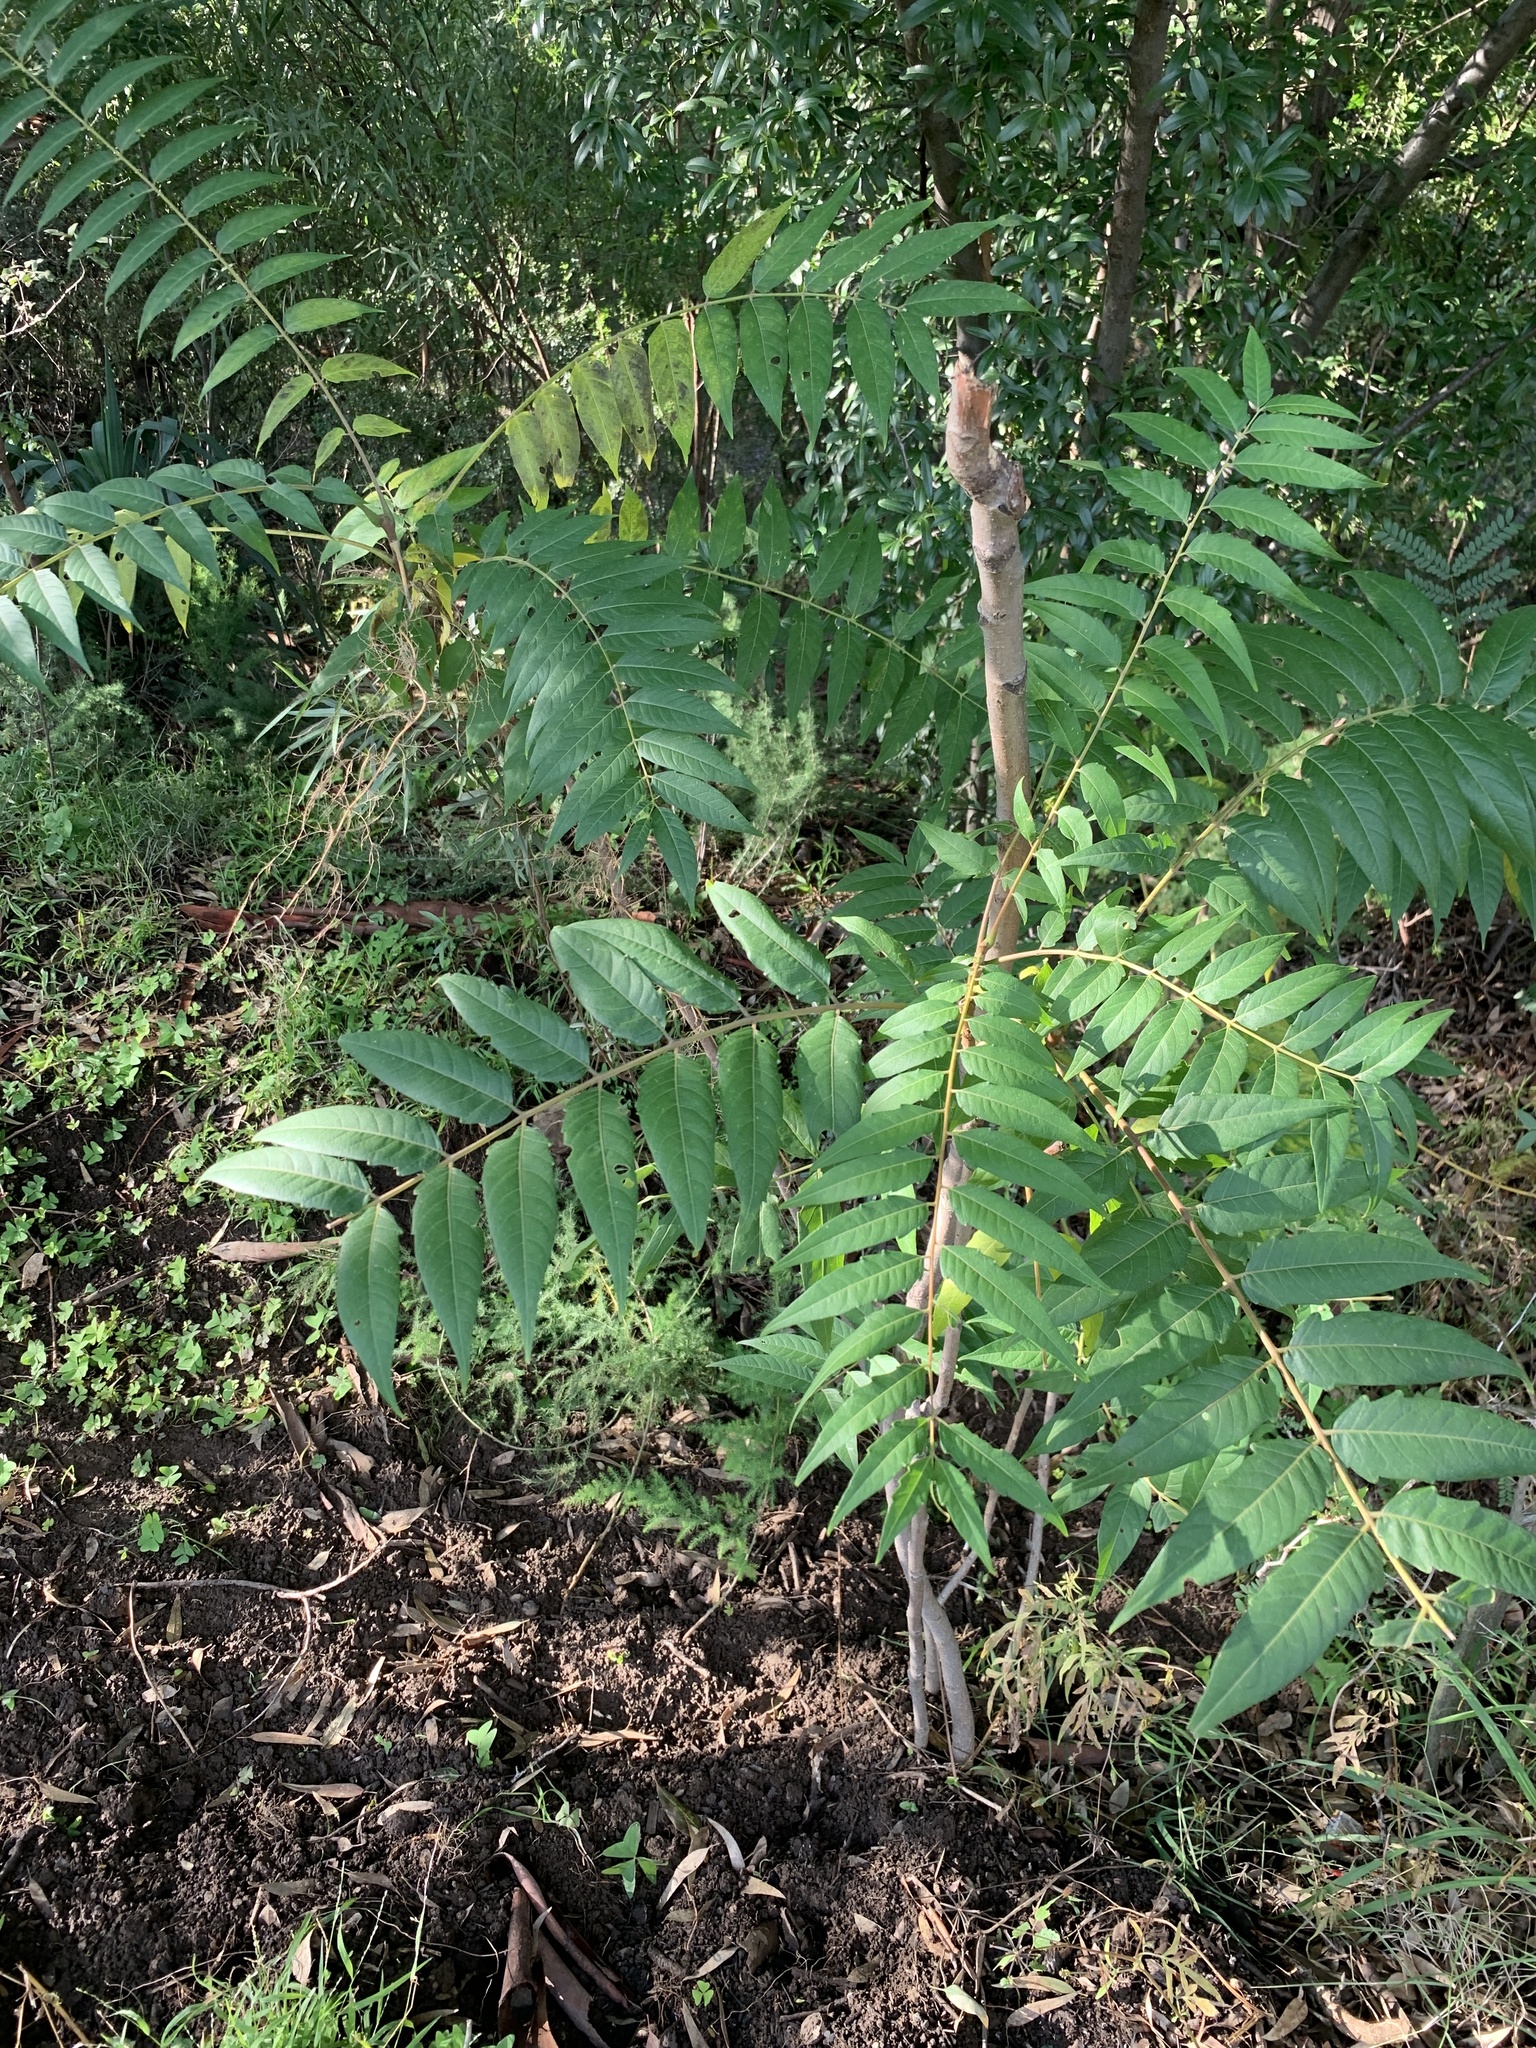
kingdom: Plantae
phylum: Tracheophyta
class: Magnoliopsida
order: Sapindales
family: Simaroubaceae
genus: Ailanthus
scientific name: Ailanthus altissima
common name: Tree-of-heaven
